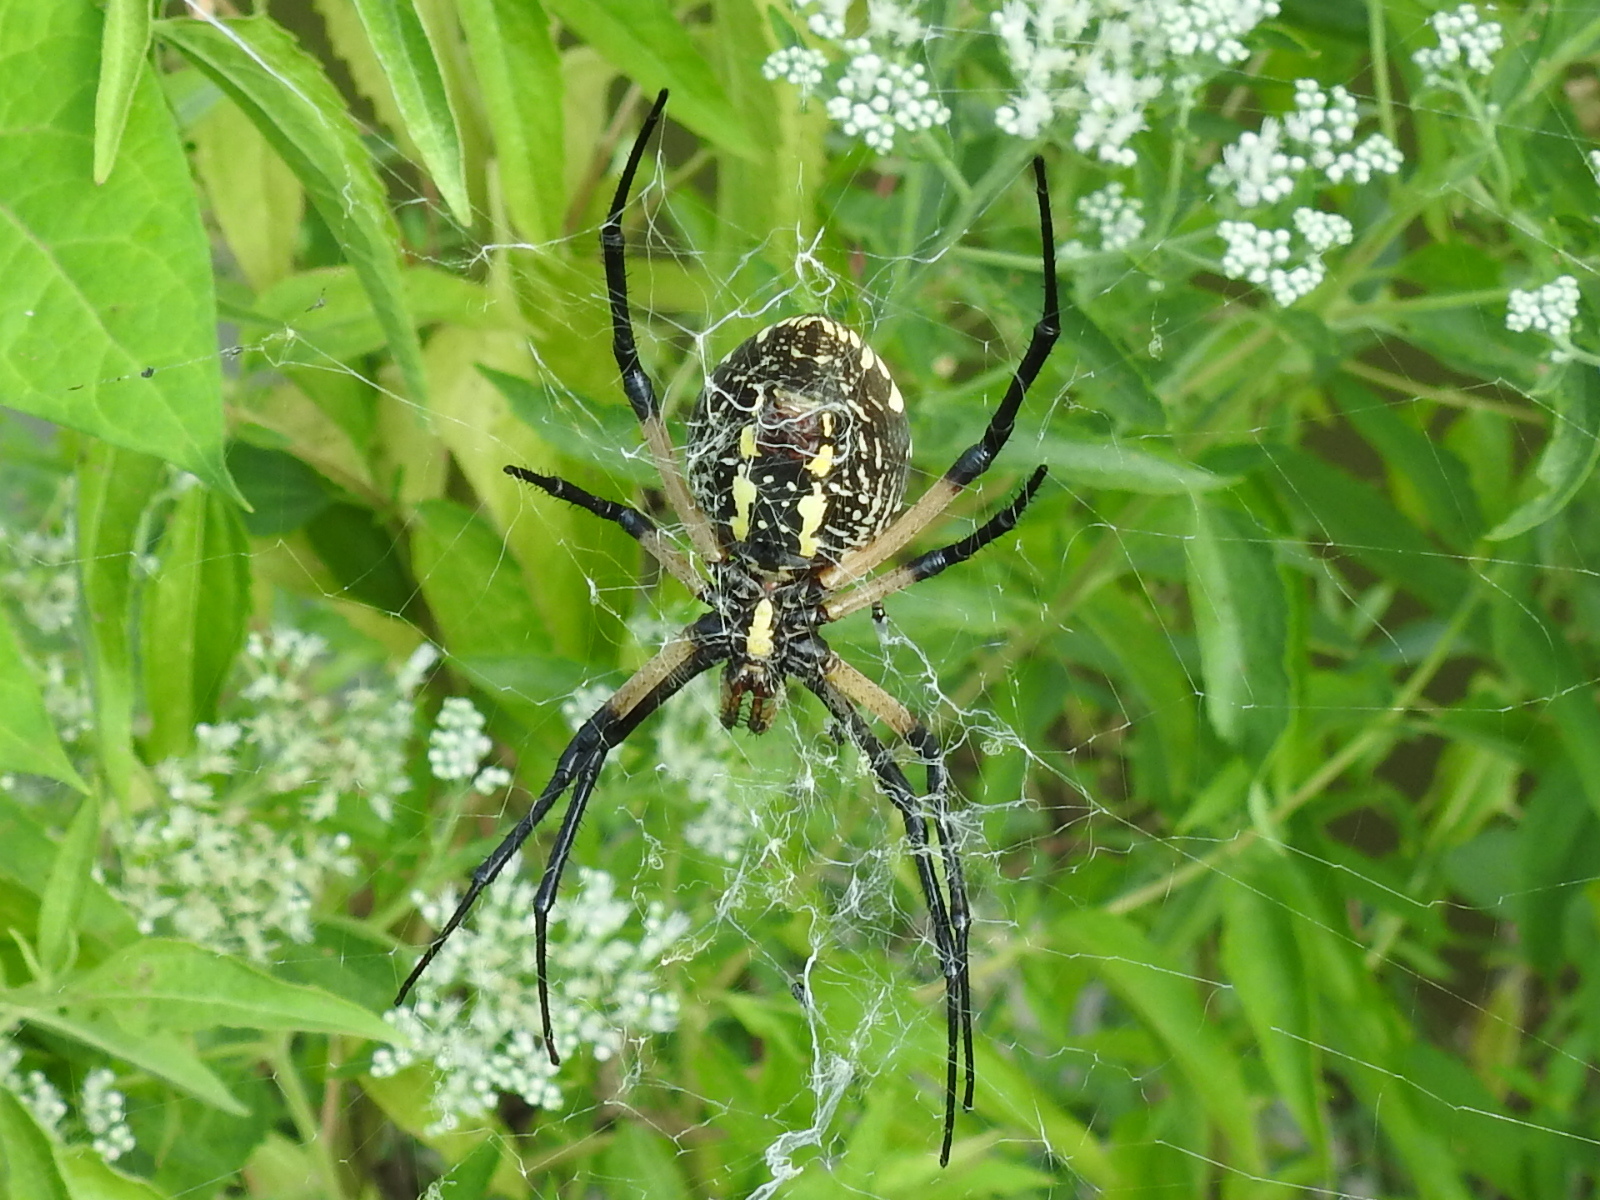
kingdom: Animalia
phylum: Arthropoda
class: Arachnida
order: Araneae
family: Araneidae
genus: Argiope
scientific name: Argiope aurantia
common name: Orb weavers
